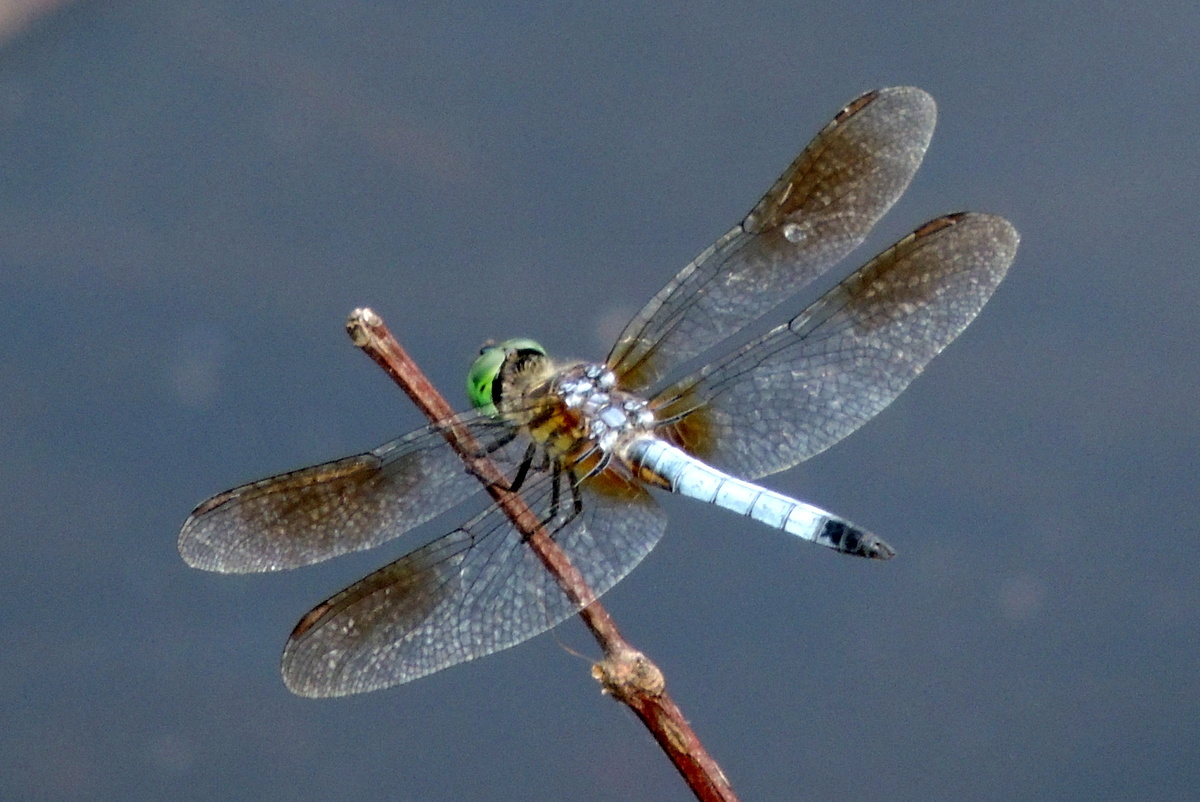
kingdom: Animalia
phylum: Arthropoda
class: Insecta
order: Odonata
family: Libellulidae
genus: Pachydiplax
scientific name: Pachydiplax longipennis
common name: Blue dasher
